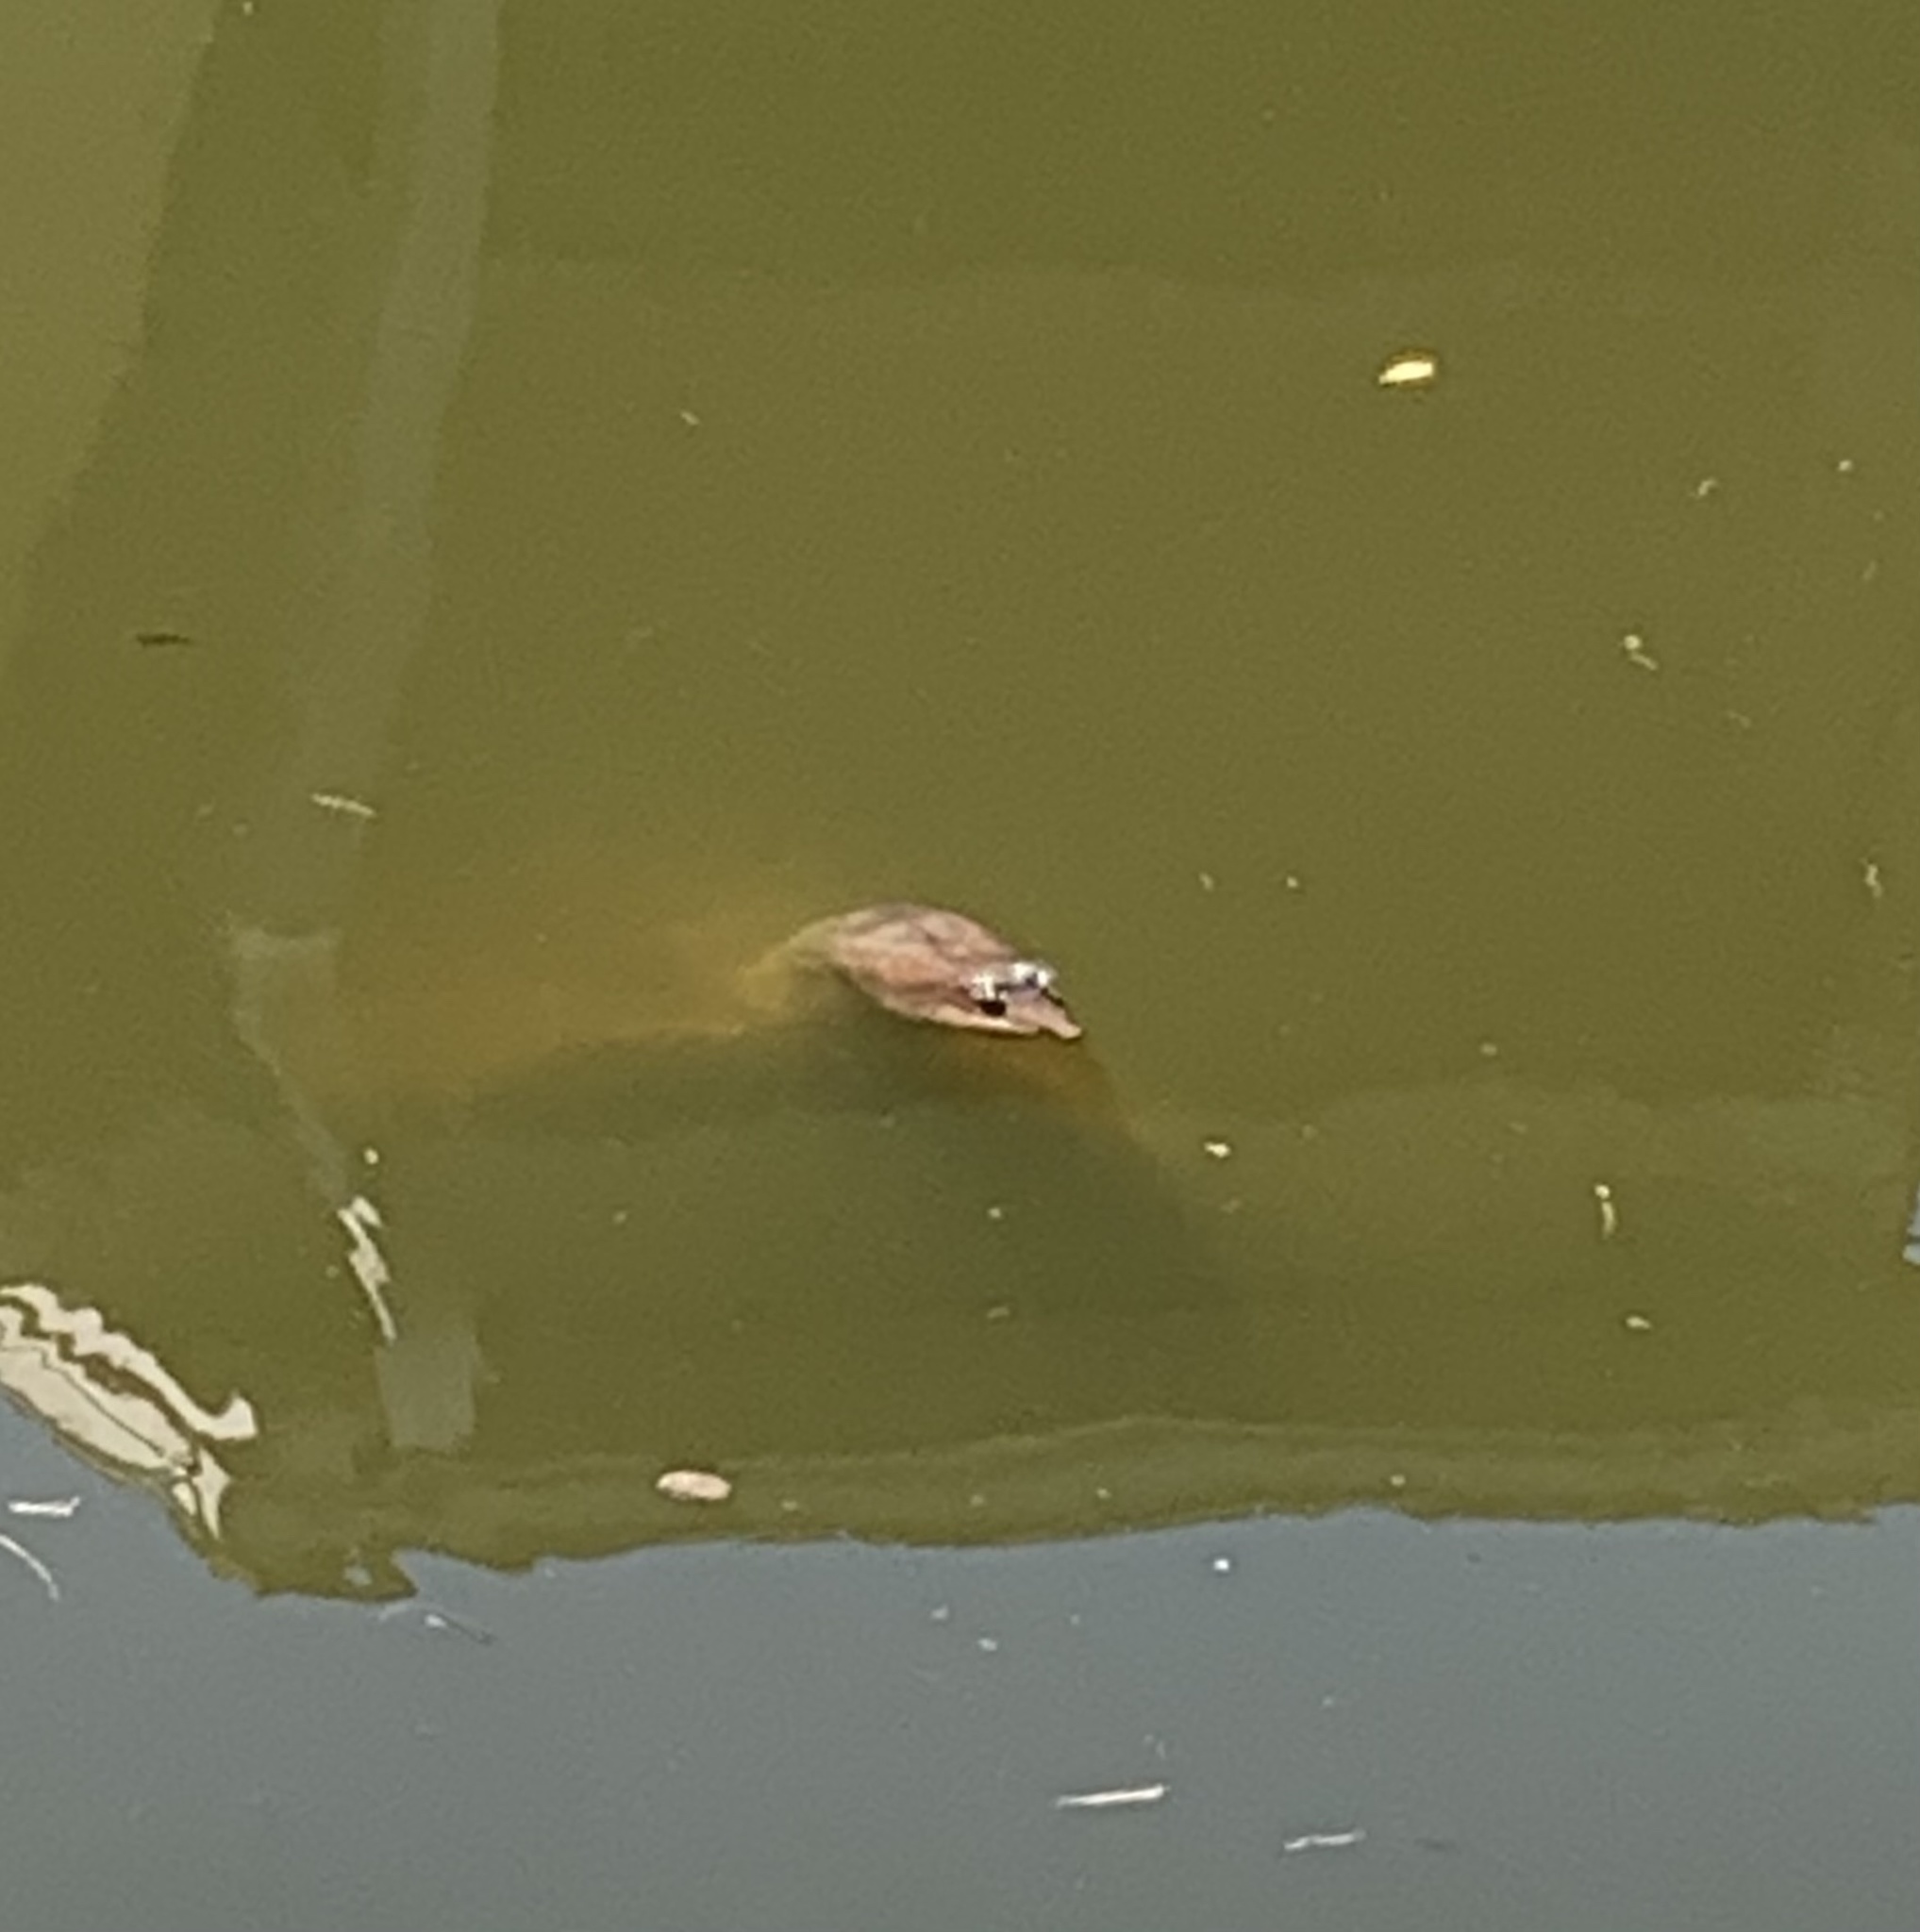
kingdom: Animalia
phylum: Chordata
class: Testudines
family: Trionychidae
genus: Apalone
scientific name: Apalone ferox
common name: Florida softshell turtle
